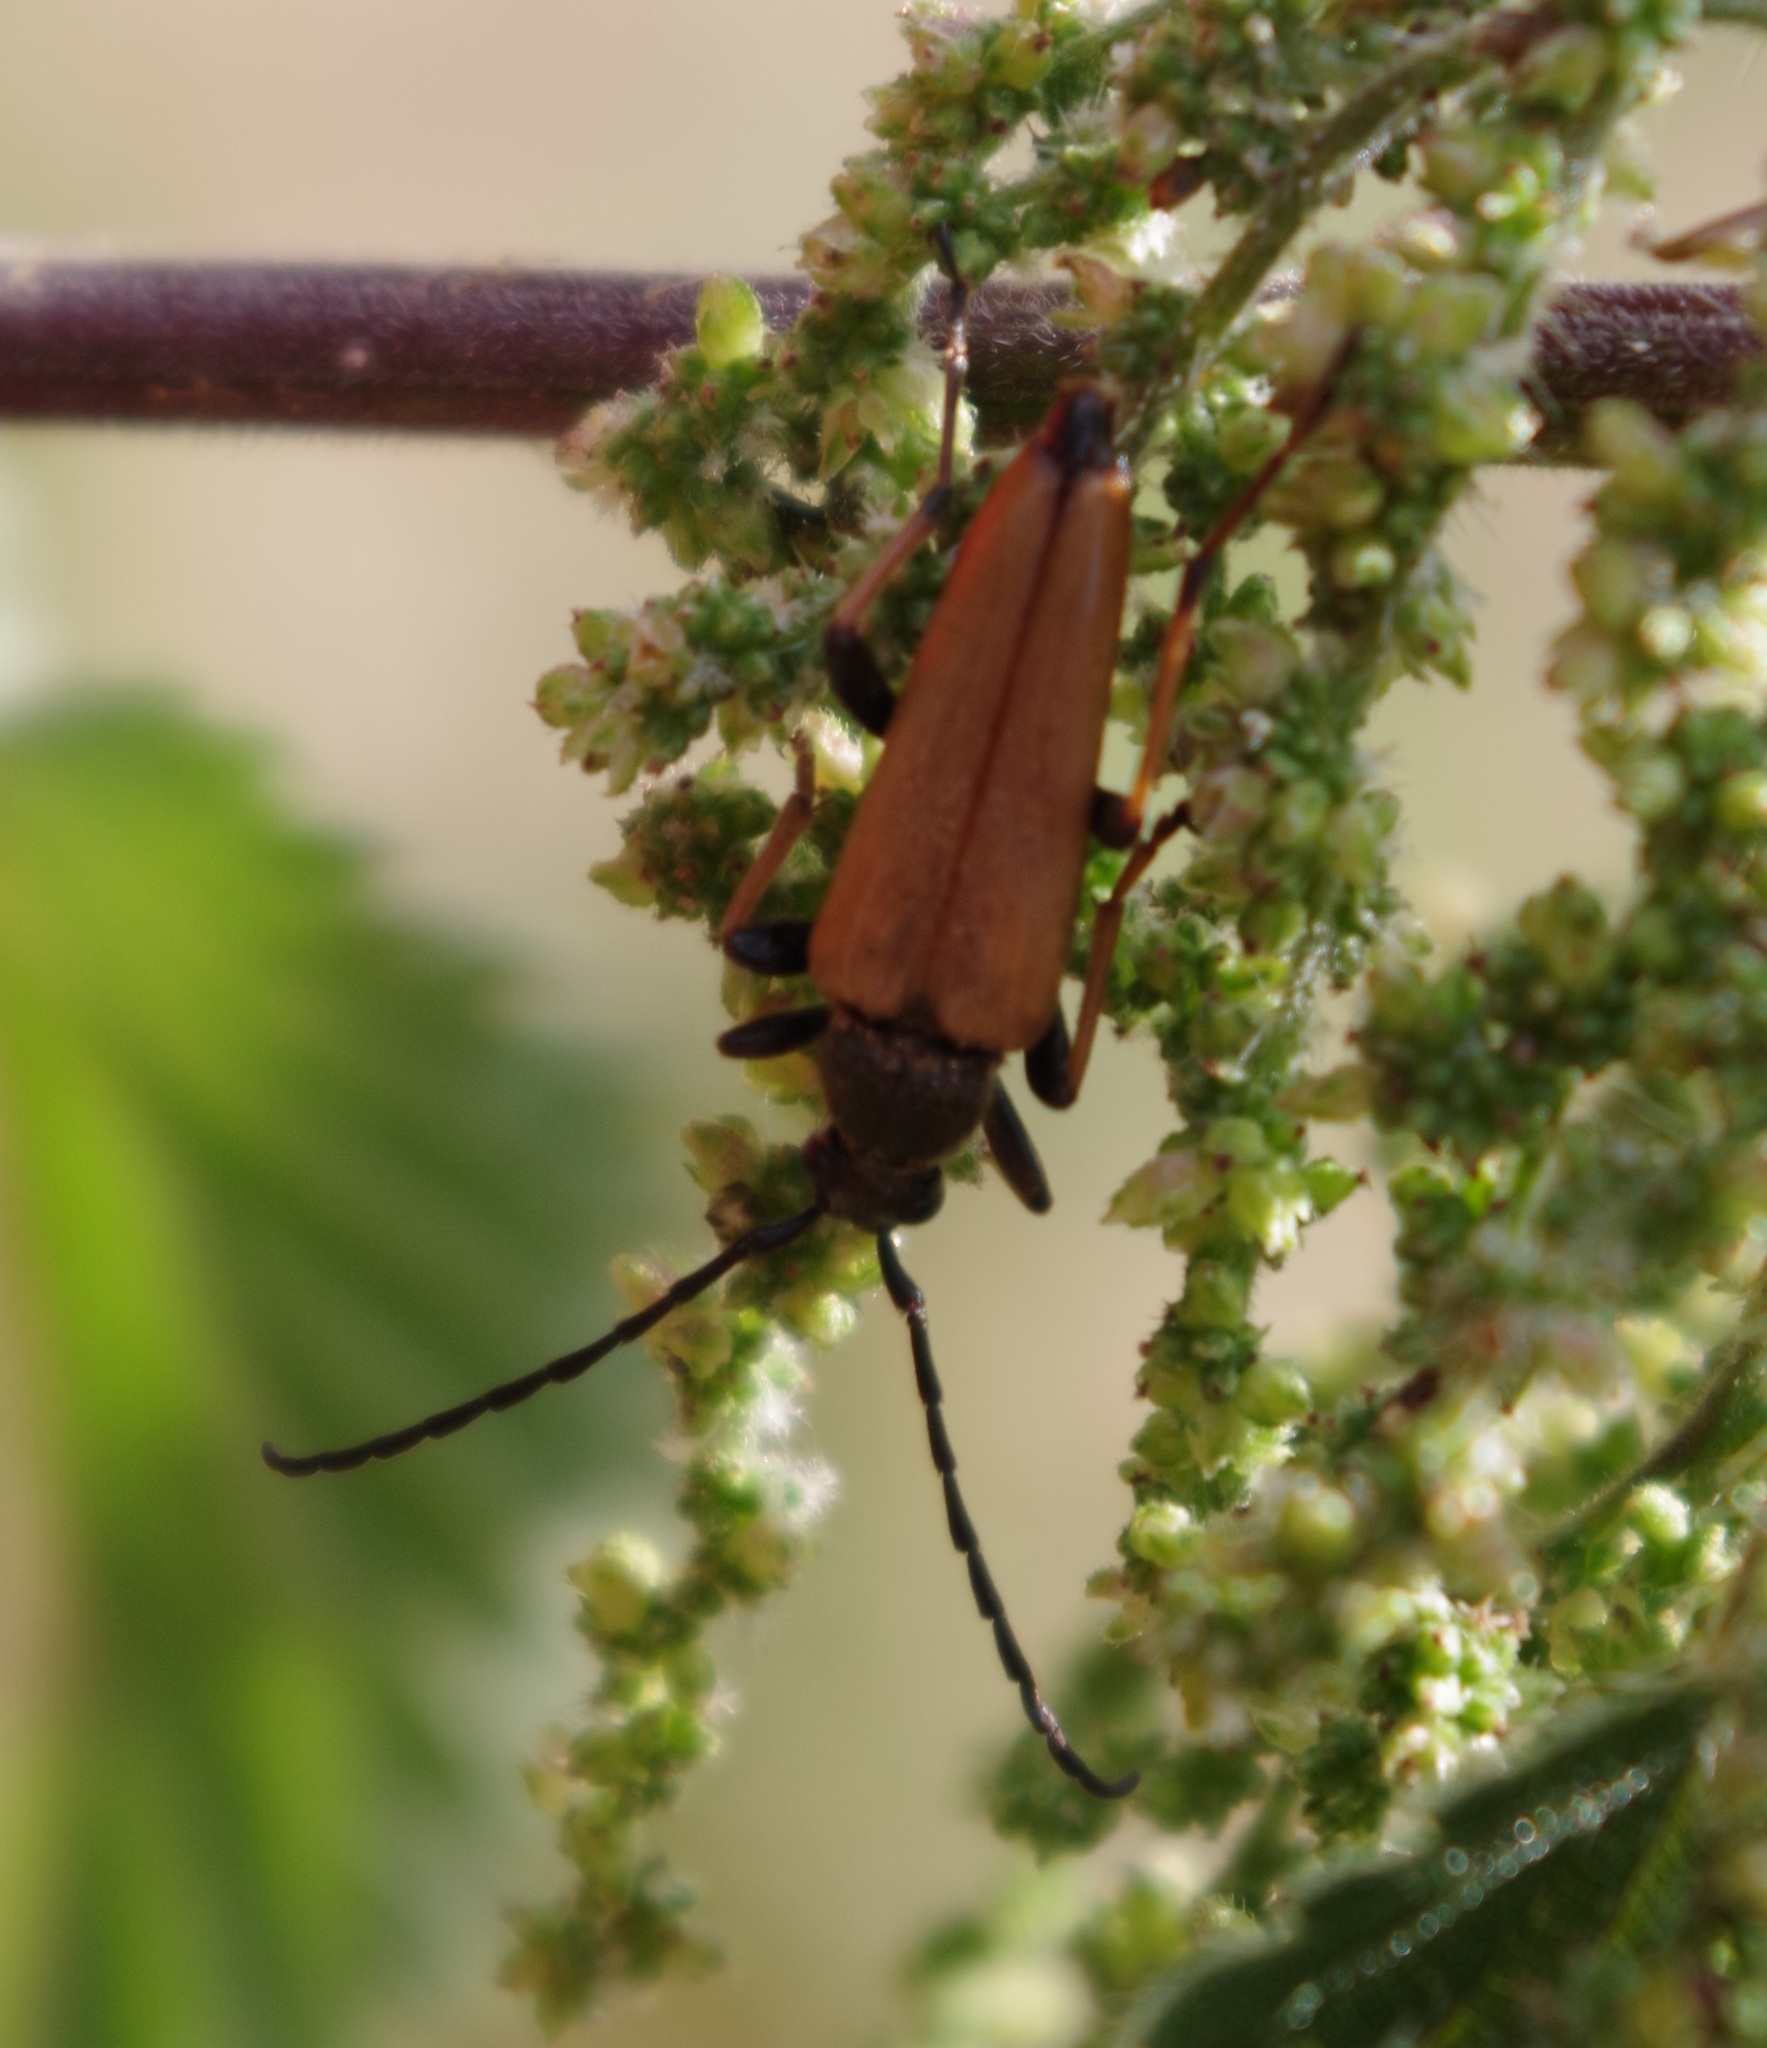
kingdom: Animalia
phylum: Arthropoda
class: Insecta
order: Coleoptera
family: Cerambycidae
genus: Stictoleptura
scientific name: Stictoleptura rubra
